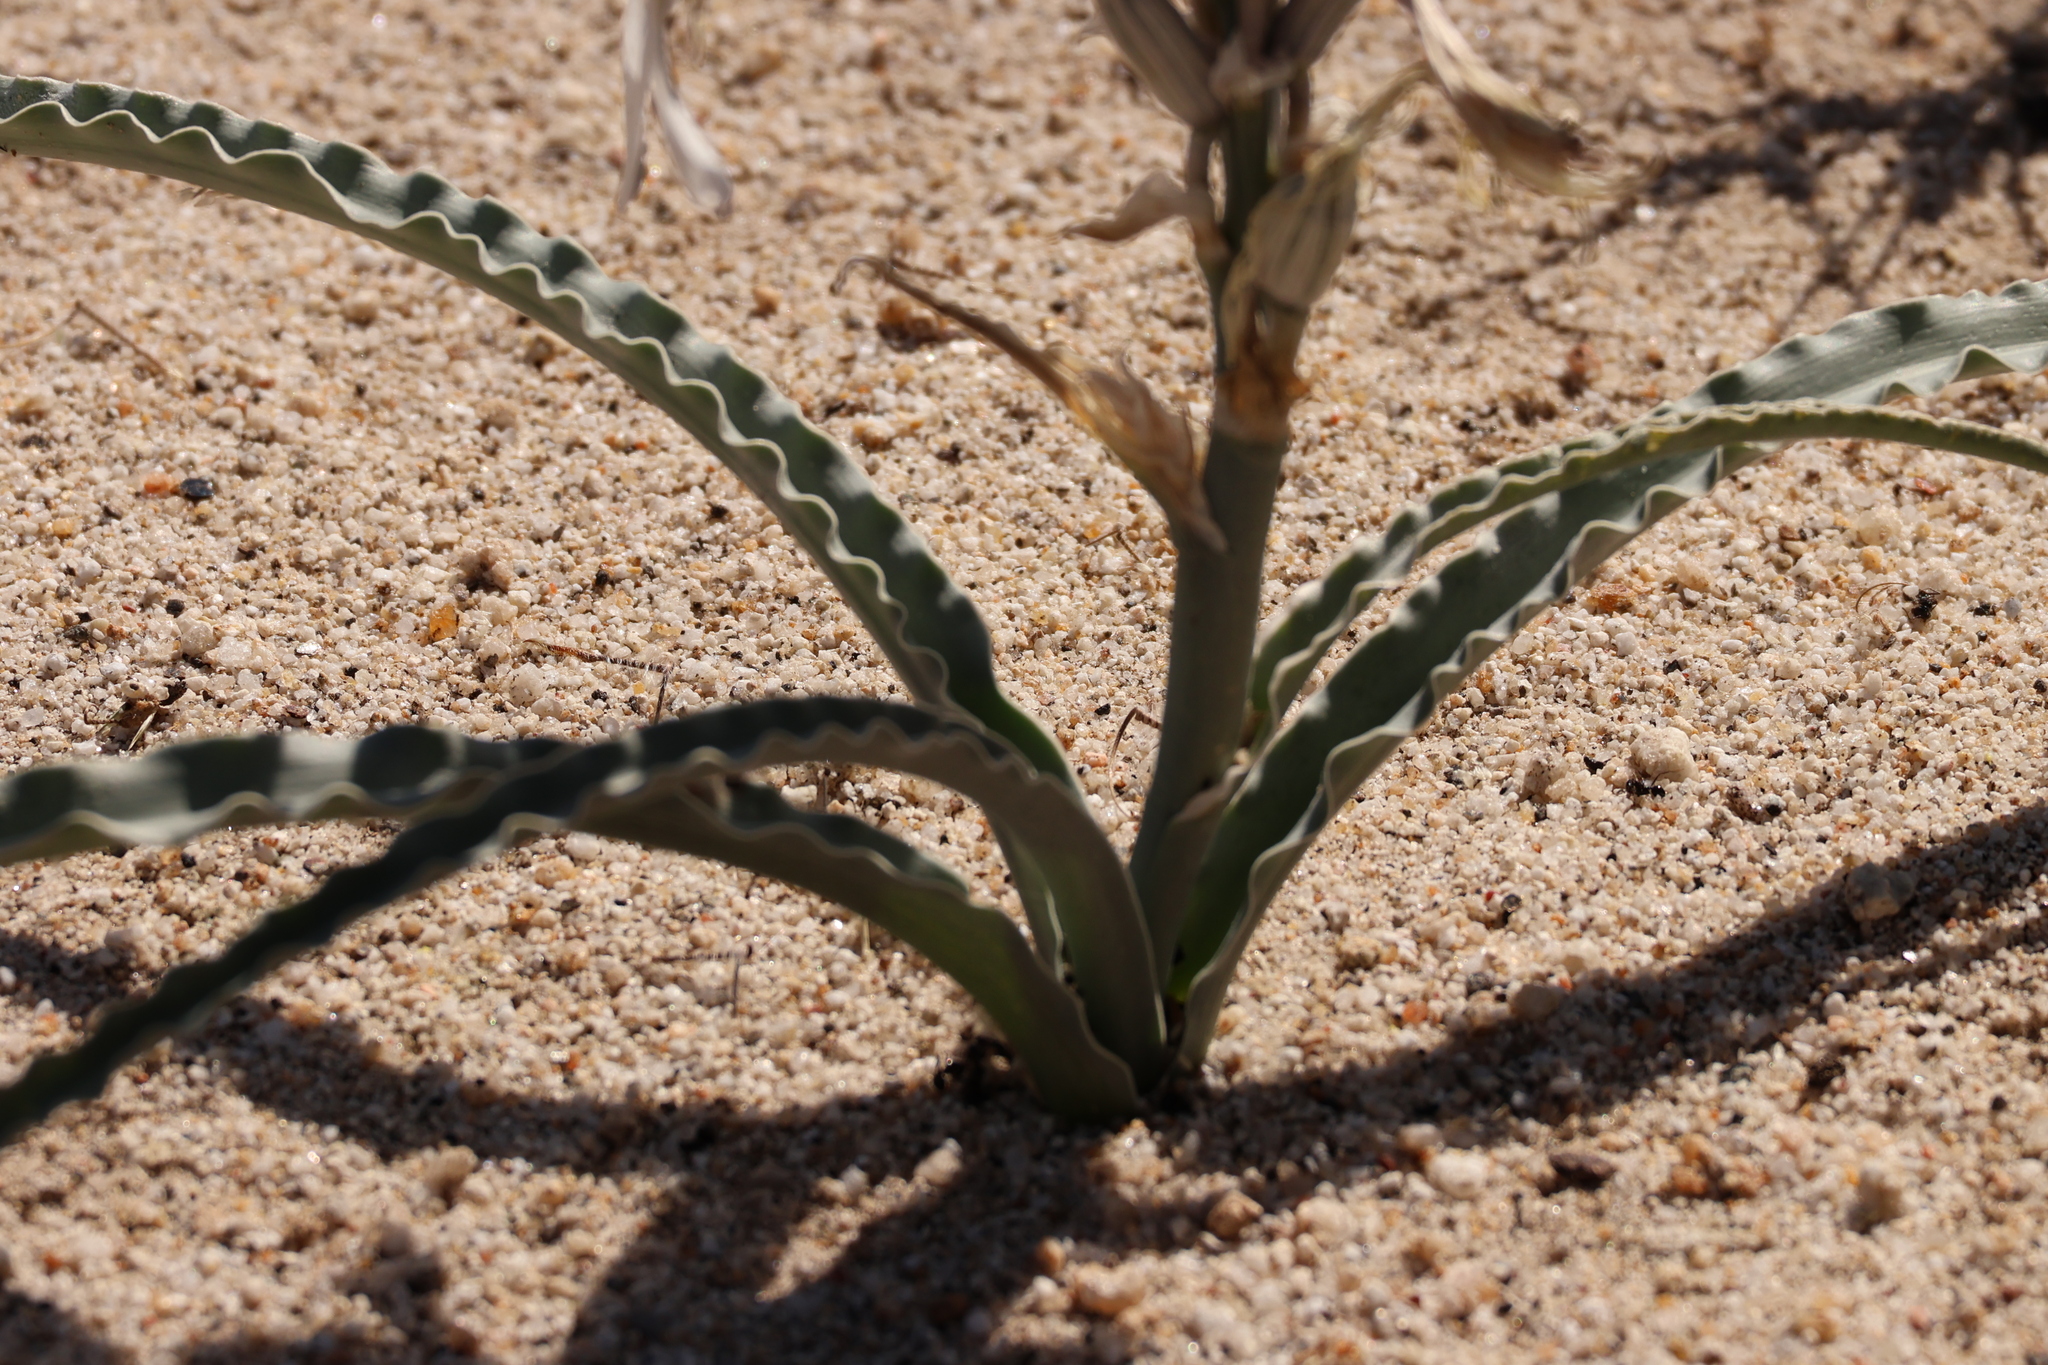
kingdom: Plantae
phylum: Tracheophyta
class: Liliopsida
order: Asparagales
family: Asparagaceae
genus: Hesperocallis
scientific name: Hesperocallis undulata
